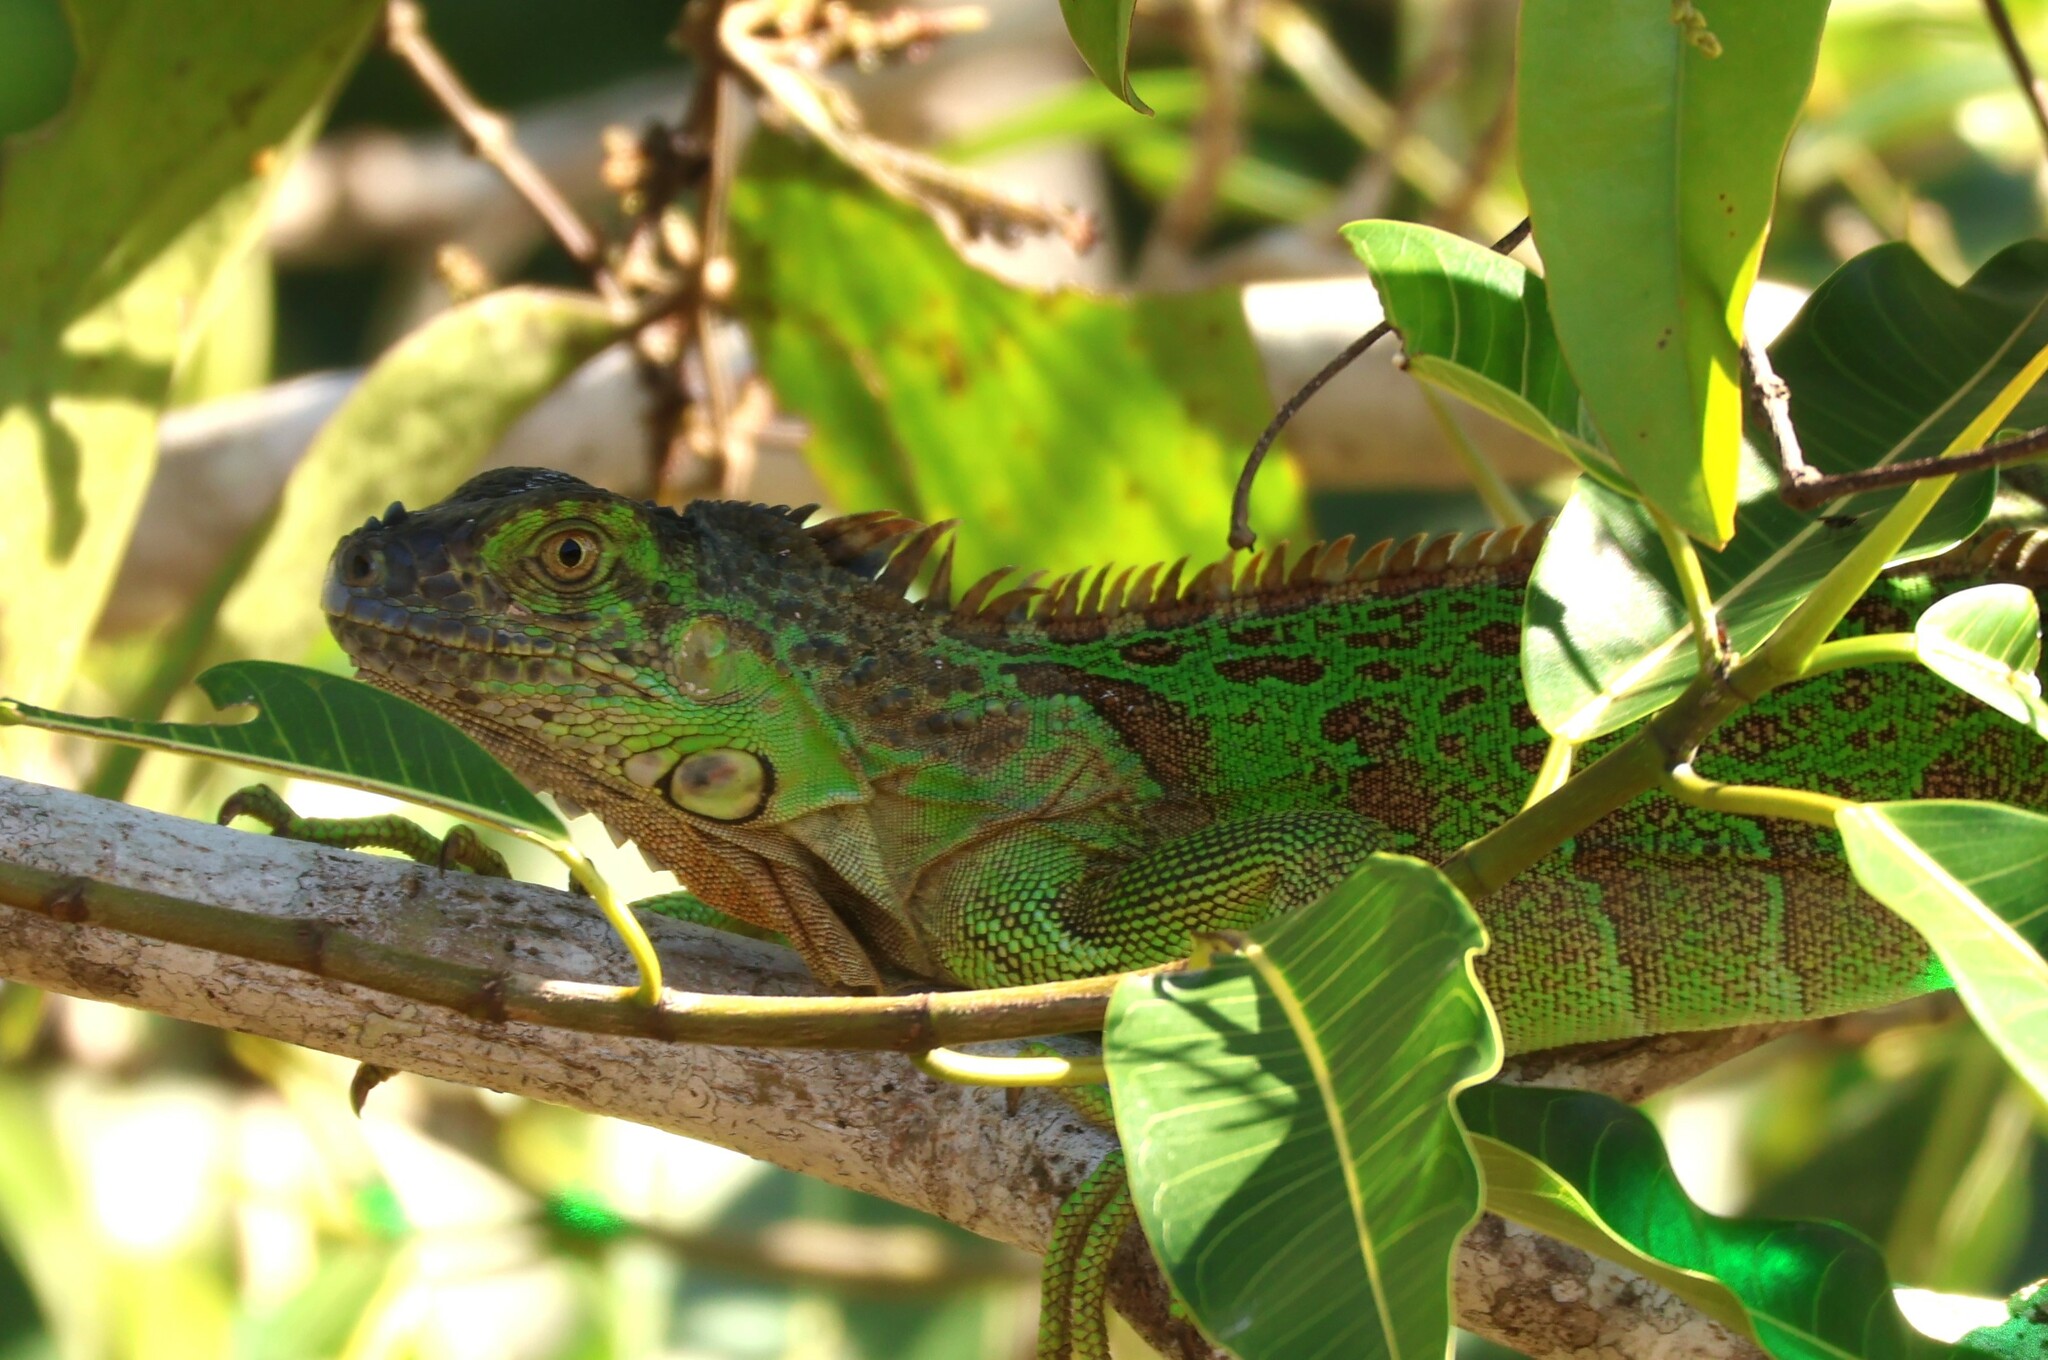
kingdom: Animalia
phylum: Chordata
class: Squamata
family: Iguanidae
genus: Iguana
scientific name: Iguana iguana
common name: Green iguana
